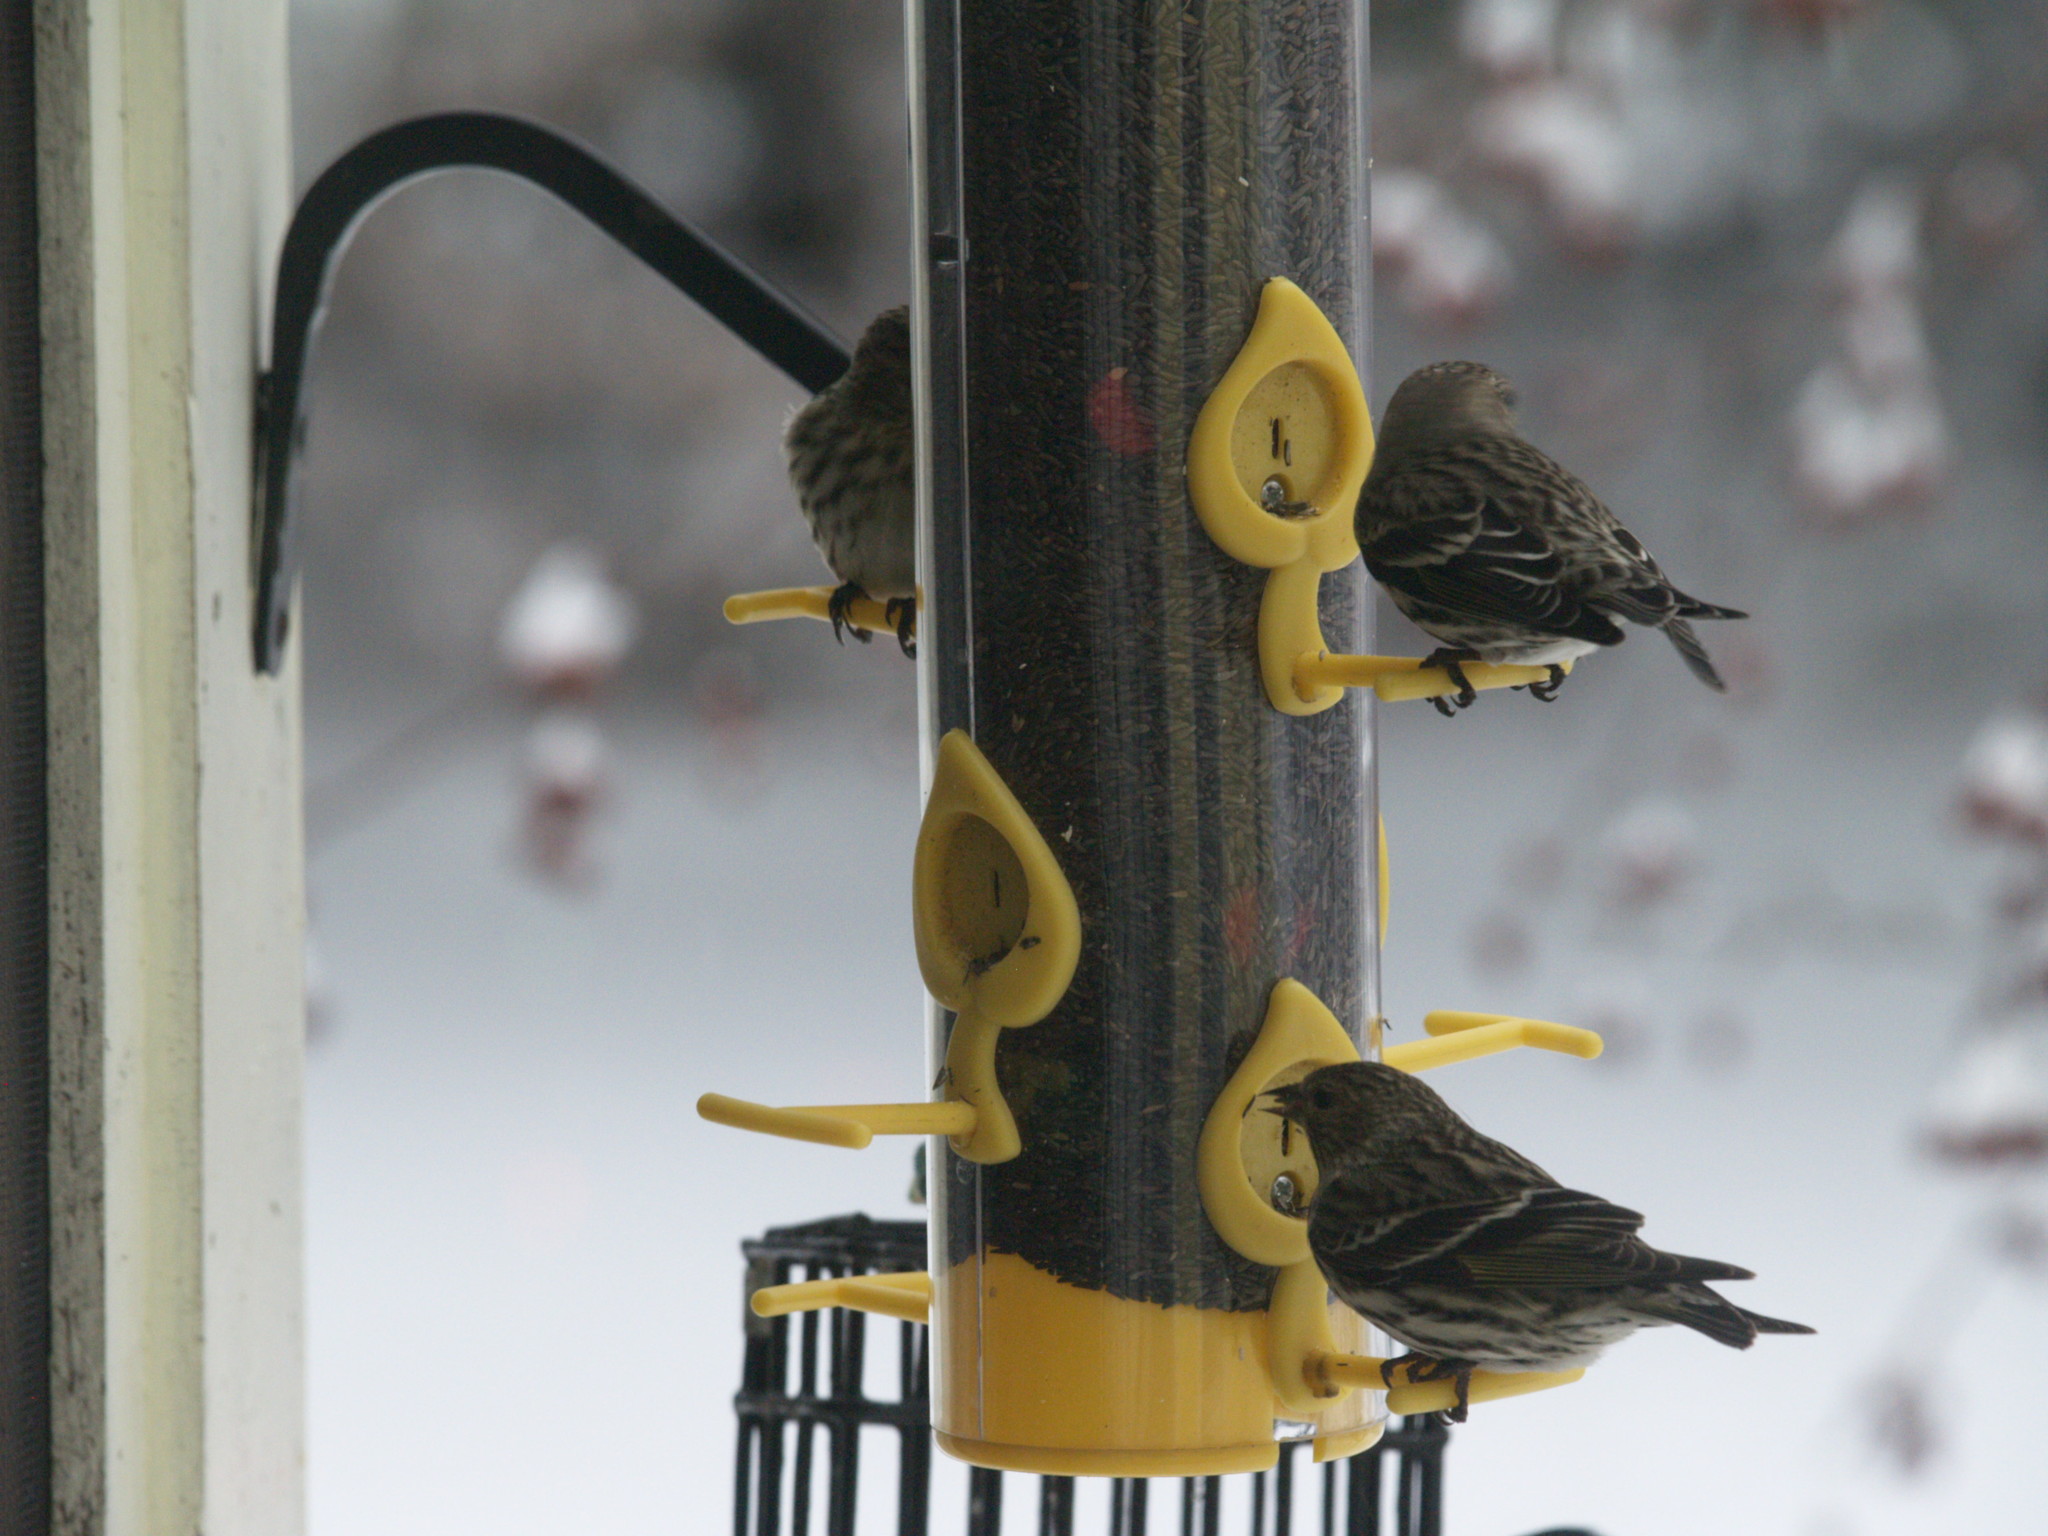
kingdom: Animalia
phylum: Chordata
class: Aves
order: Passeriformes
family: Fringillidae
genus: Spinus
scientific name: Spinus pinus
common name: Pine siskin
